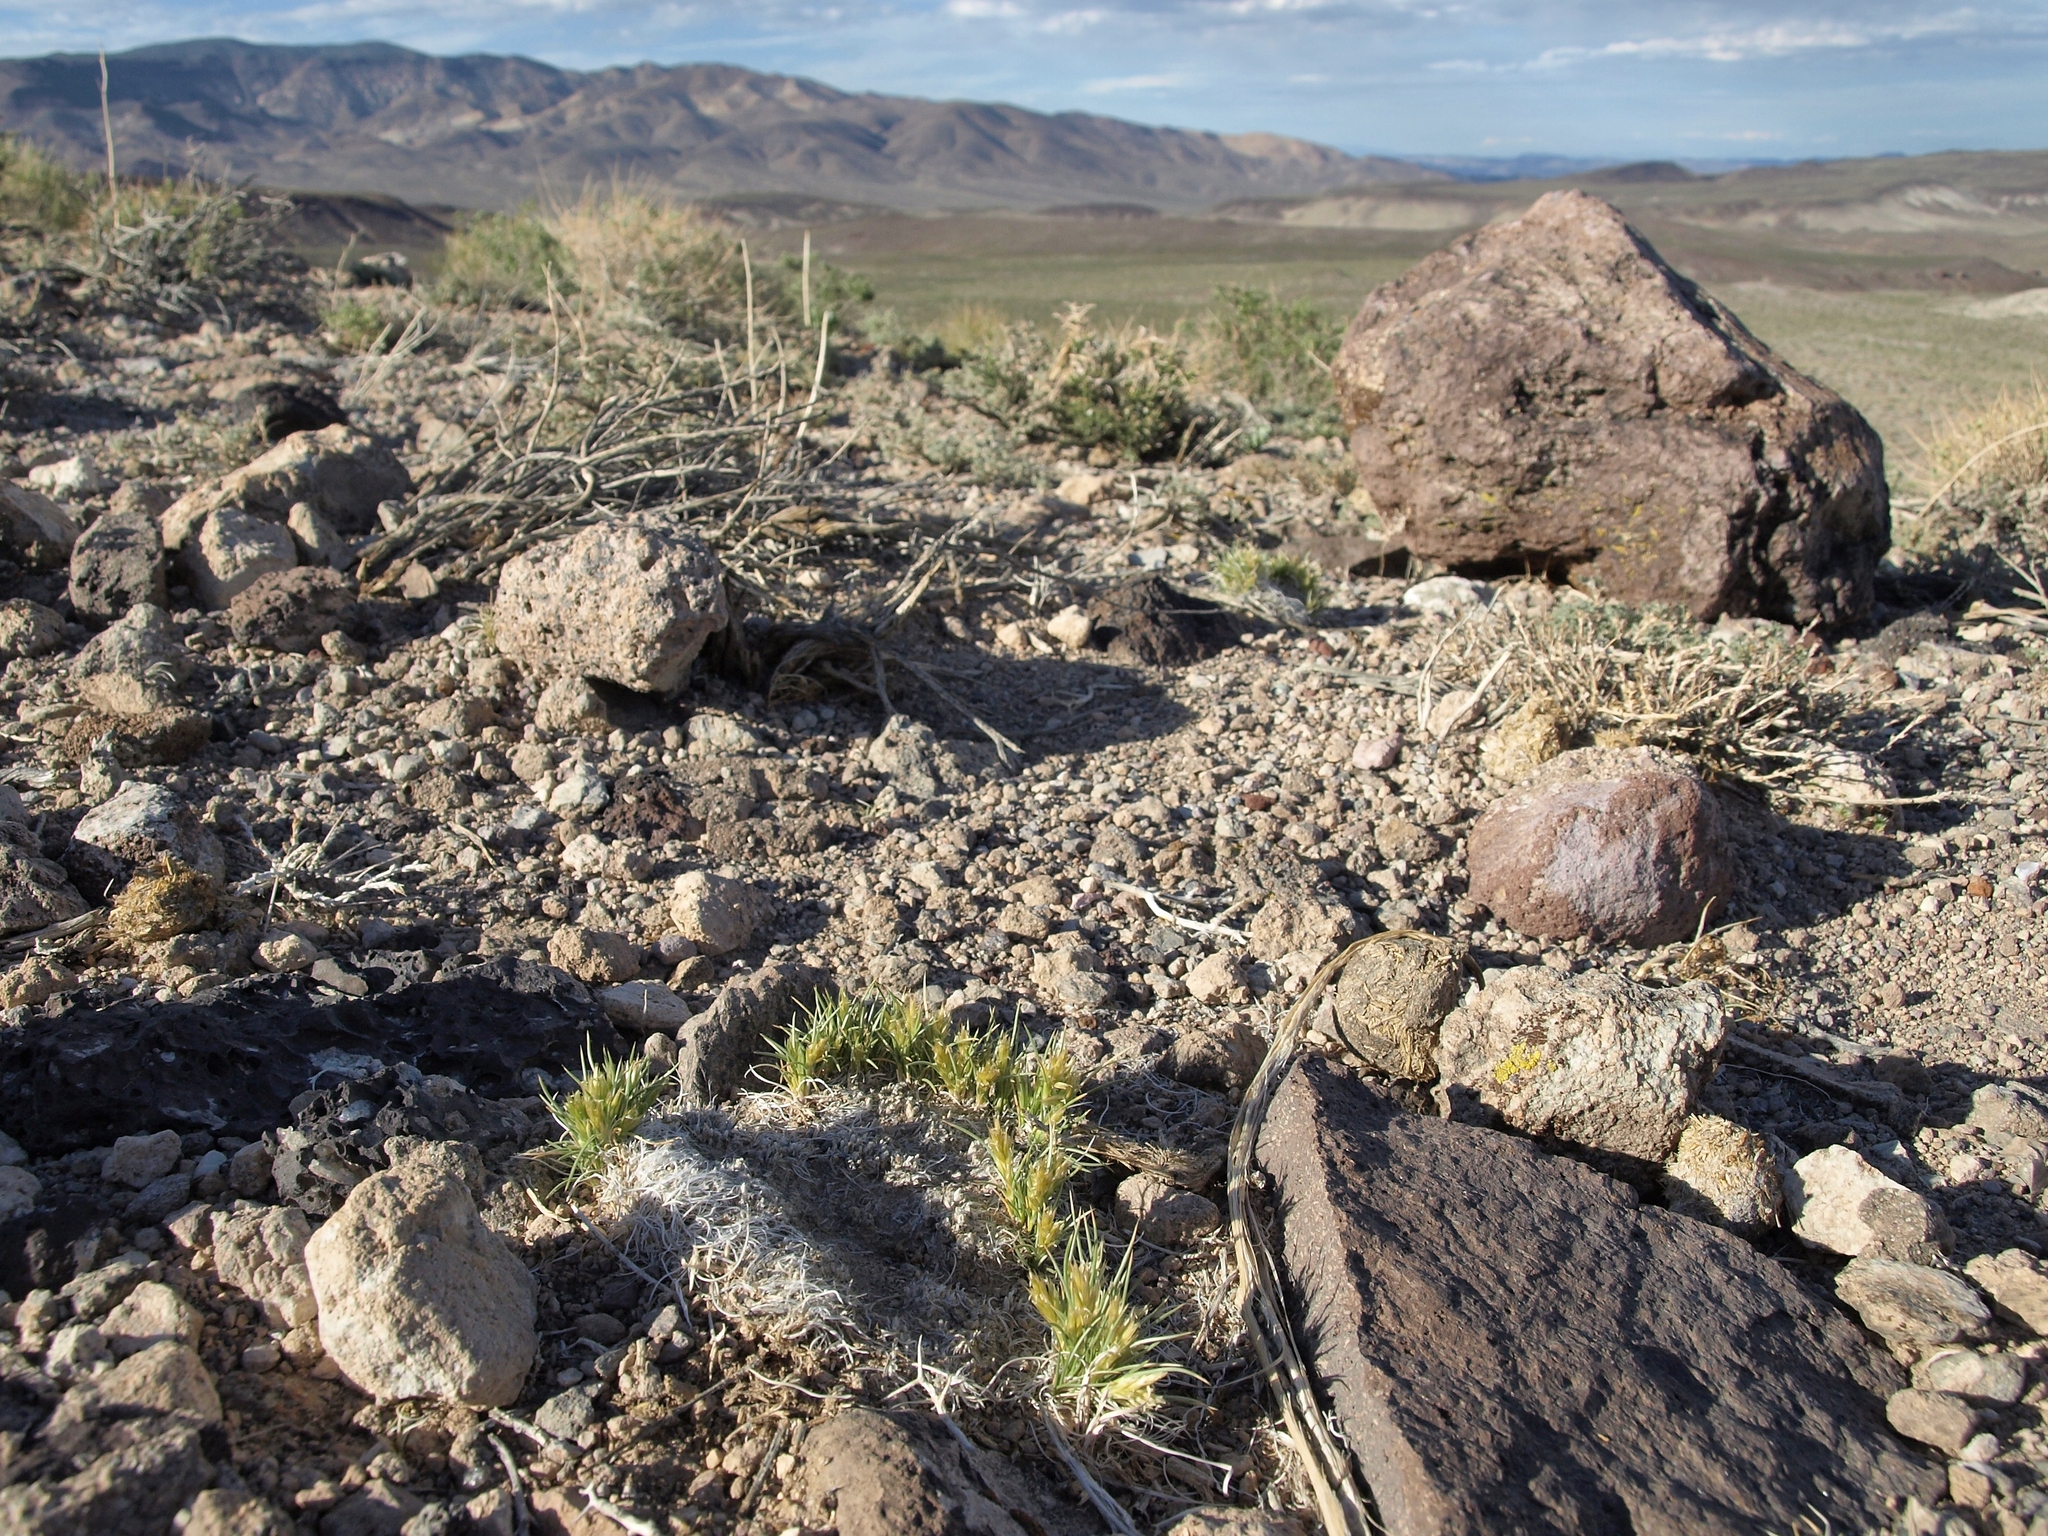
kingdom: Plantae
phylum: Tracheophyta
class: Liliopsida
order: Poales
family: Poaceae
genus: Blepharidachne
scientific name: Blepharidachne kingii
